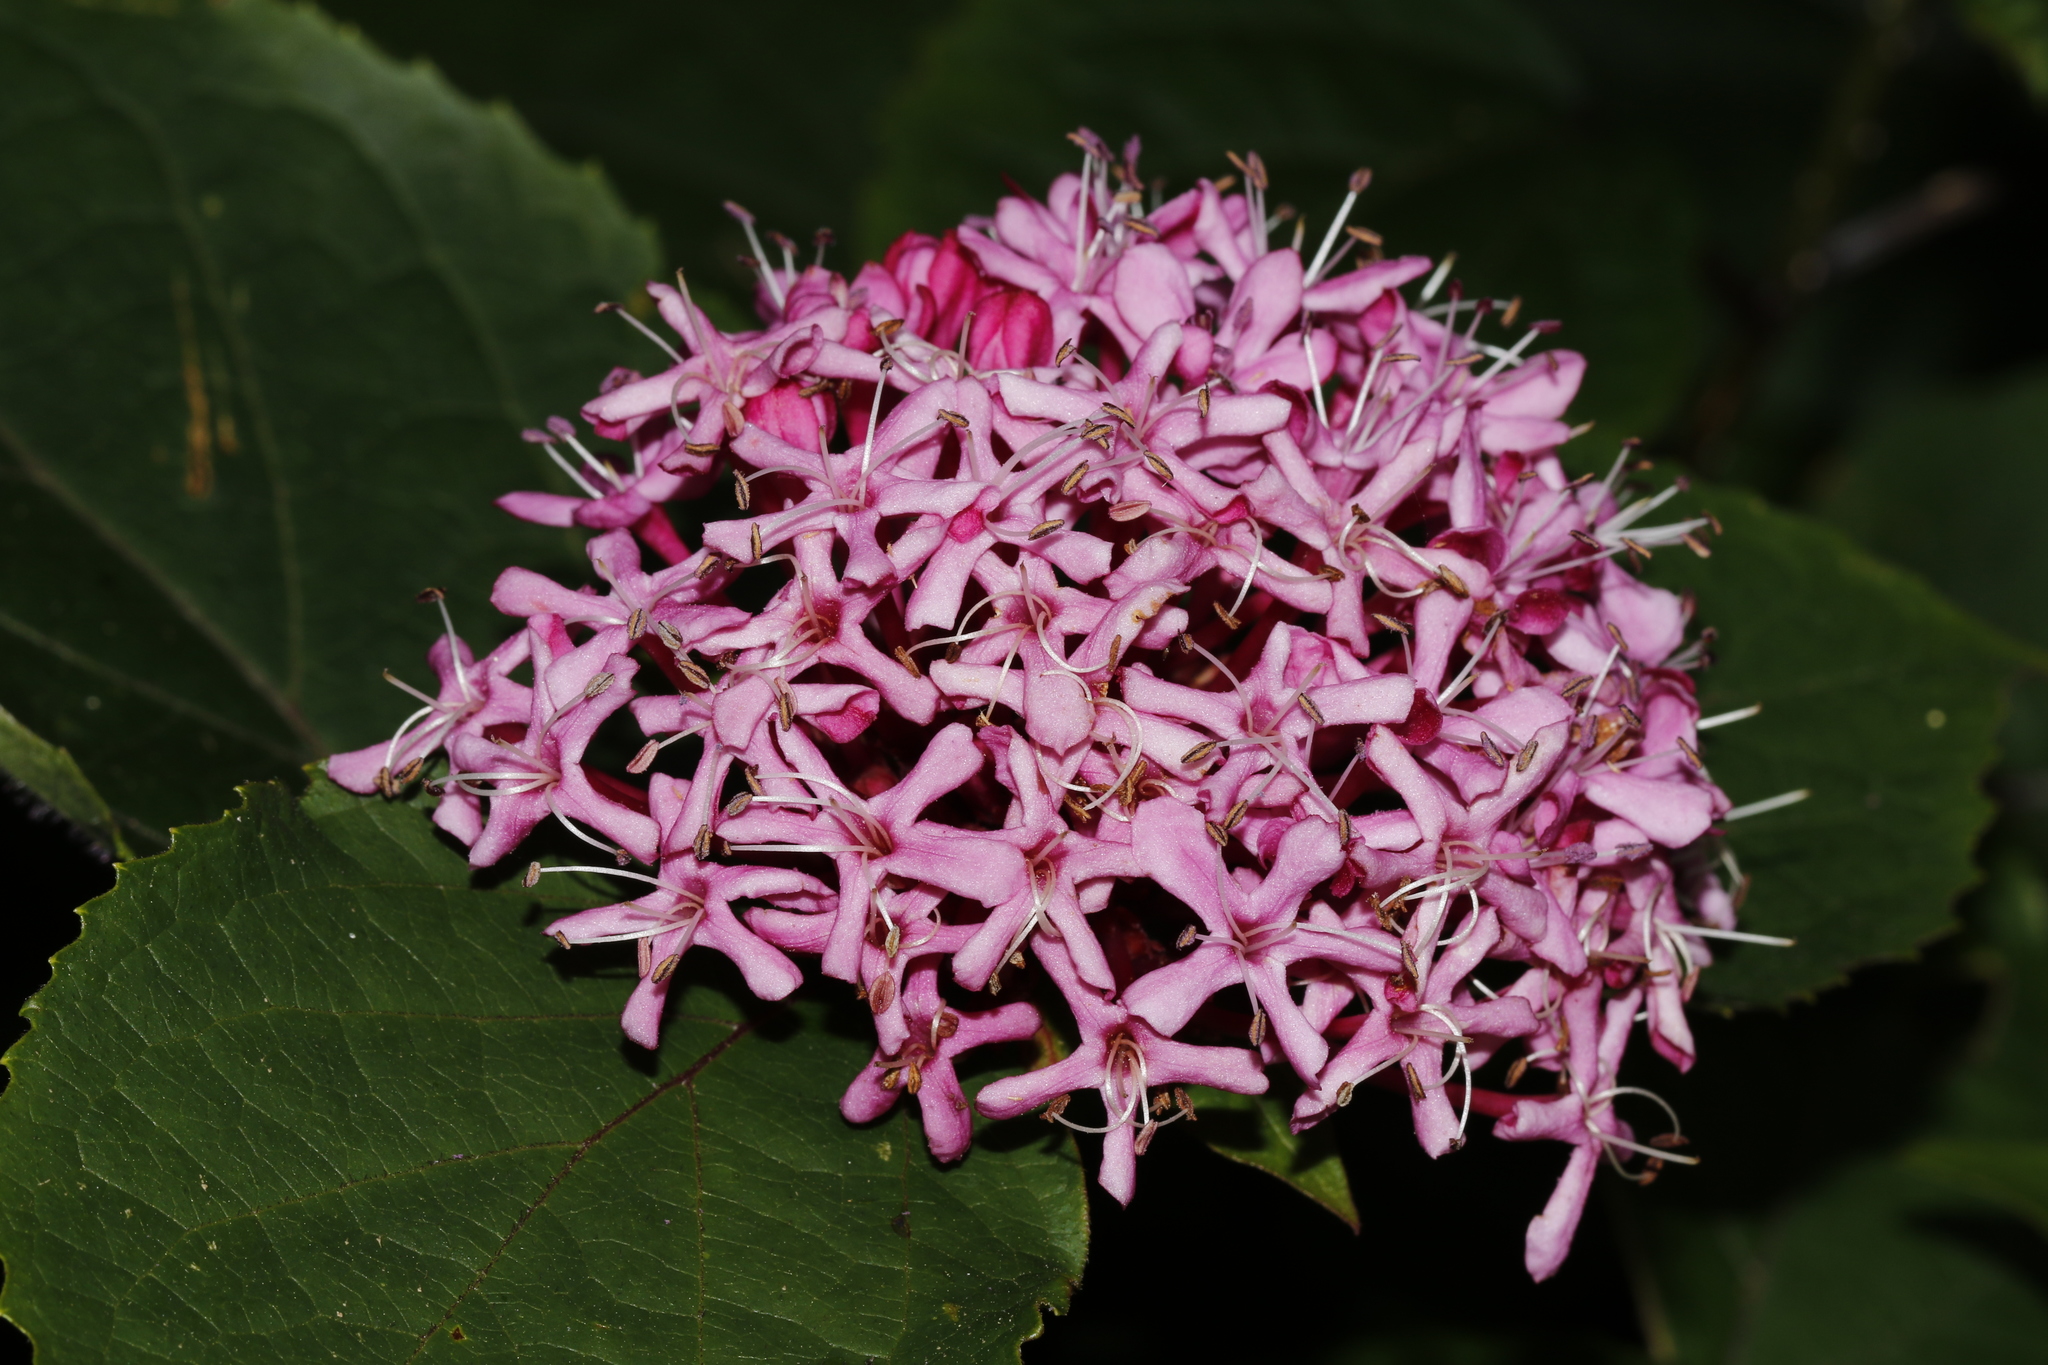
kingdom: Plantae
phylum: Tracheophyta
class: Magnoliopsida
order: Lamiales
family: Lamiaceae
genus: Clerodendrum
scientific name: Clerodendrum bungei
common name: Rose glorybower
